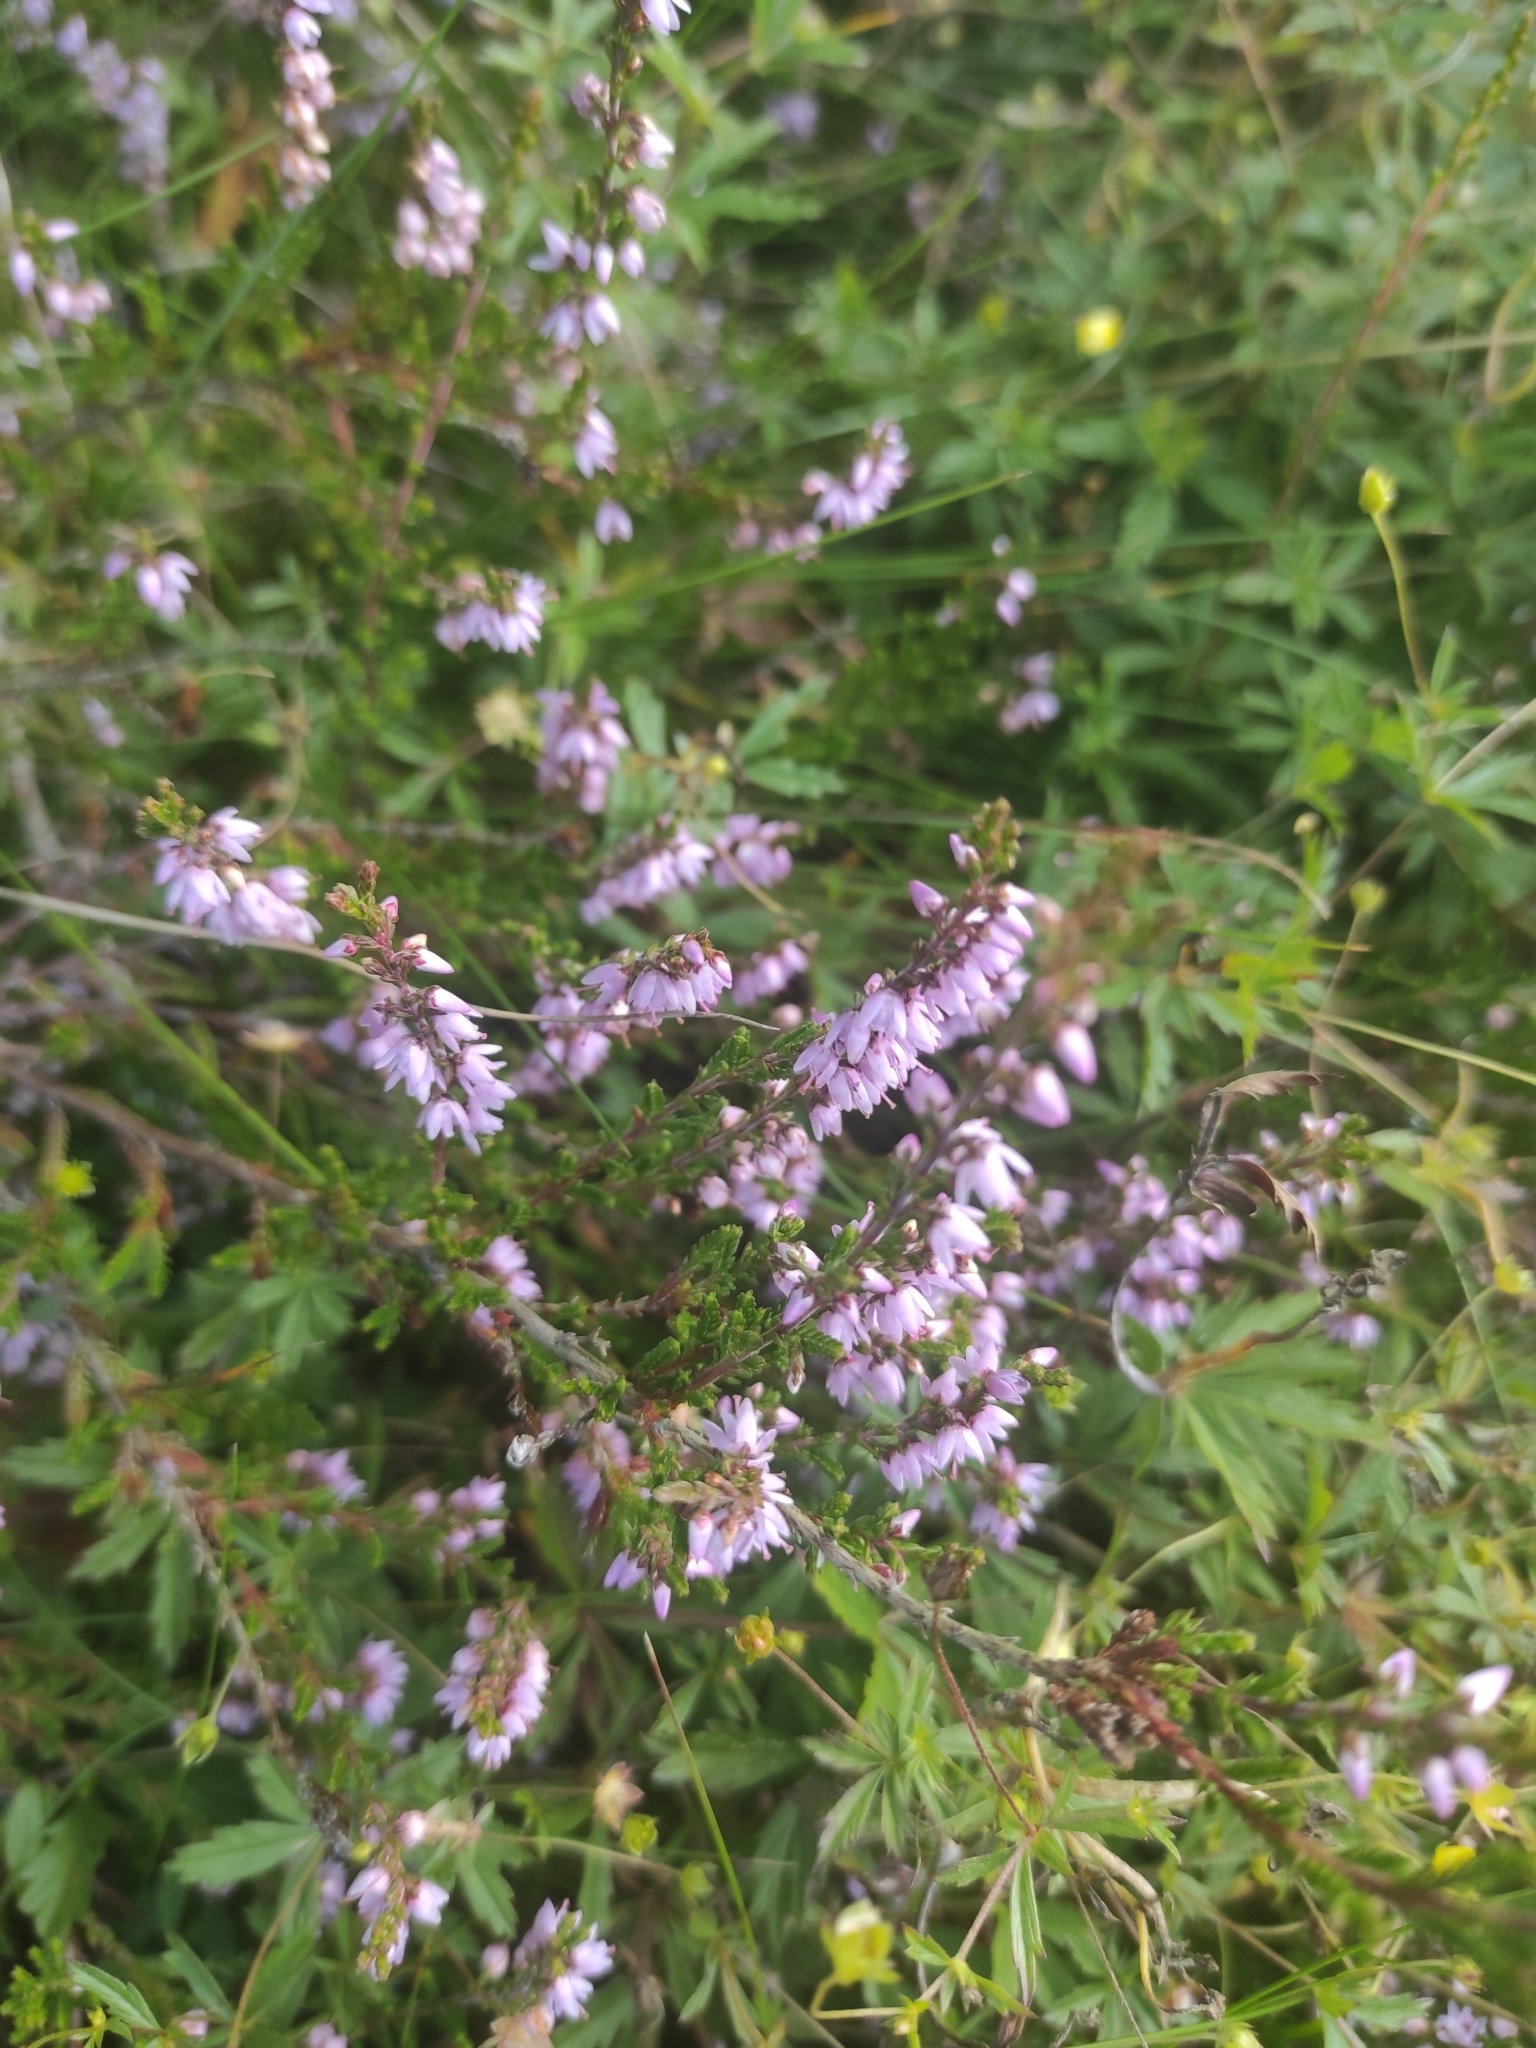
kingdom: Plantae
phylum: Tracheophyta
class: Magnoliopsida
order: Ericales
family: Ericaceae
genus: Calluna
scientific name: Calluna vulgaris
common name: Heather
